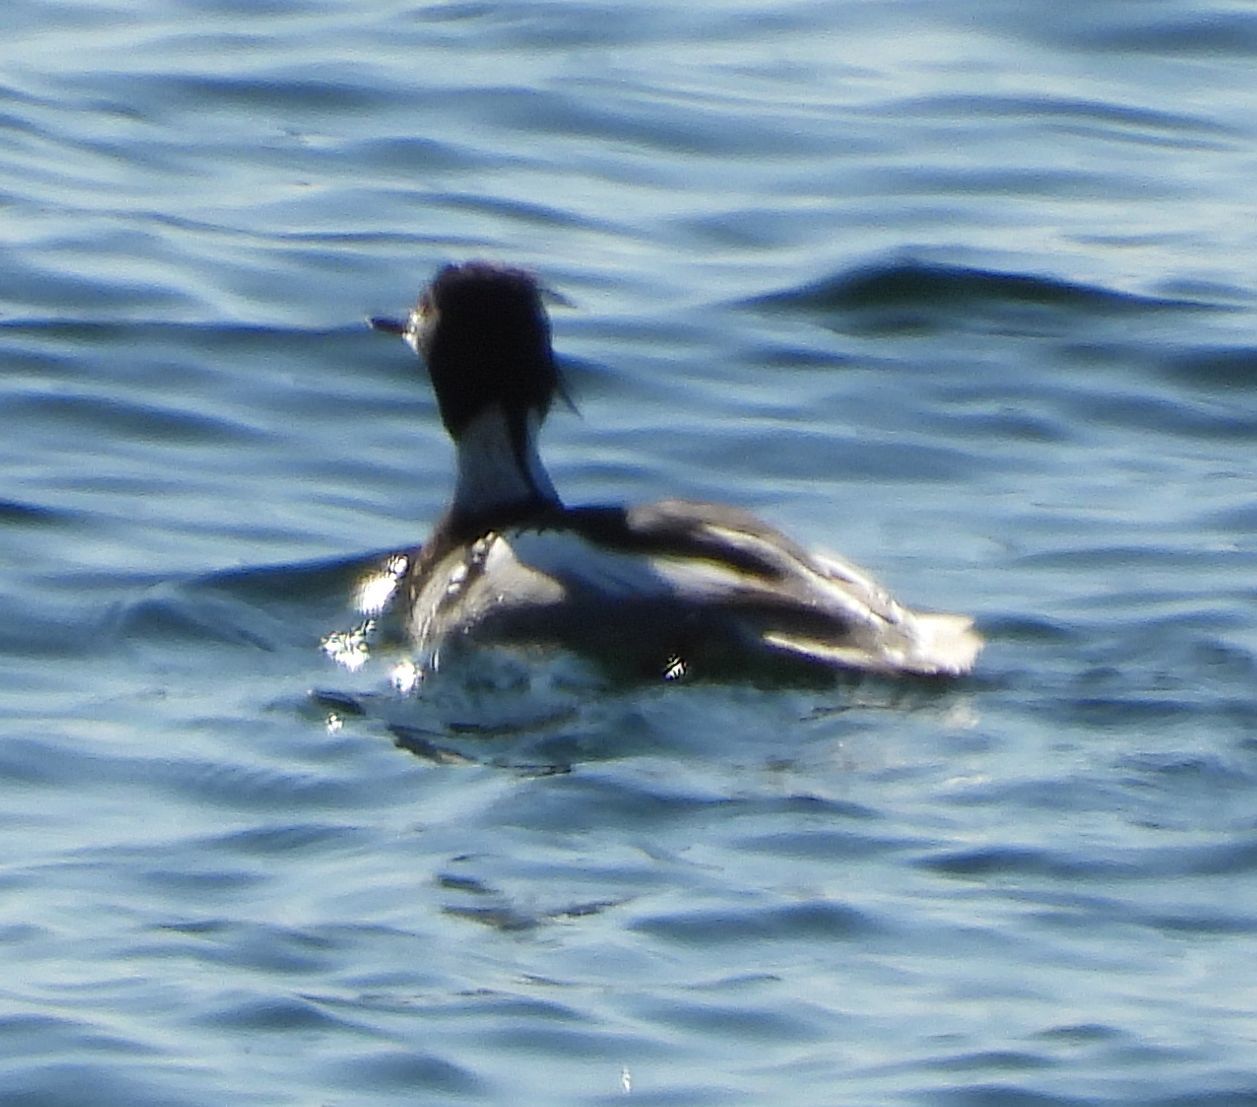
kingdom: Animalia
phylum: Chordata
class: Aves
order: Anseriformes
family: Anatidae
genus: Mergus
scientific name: Mergus serrator
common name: Red-breasted merganser
